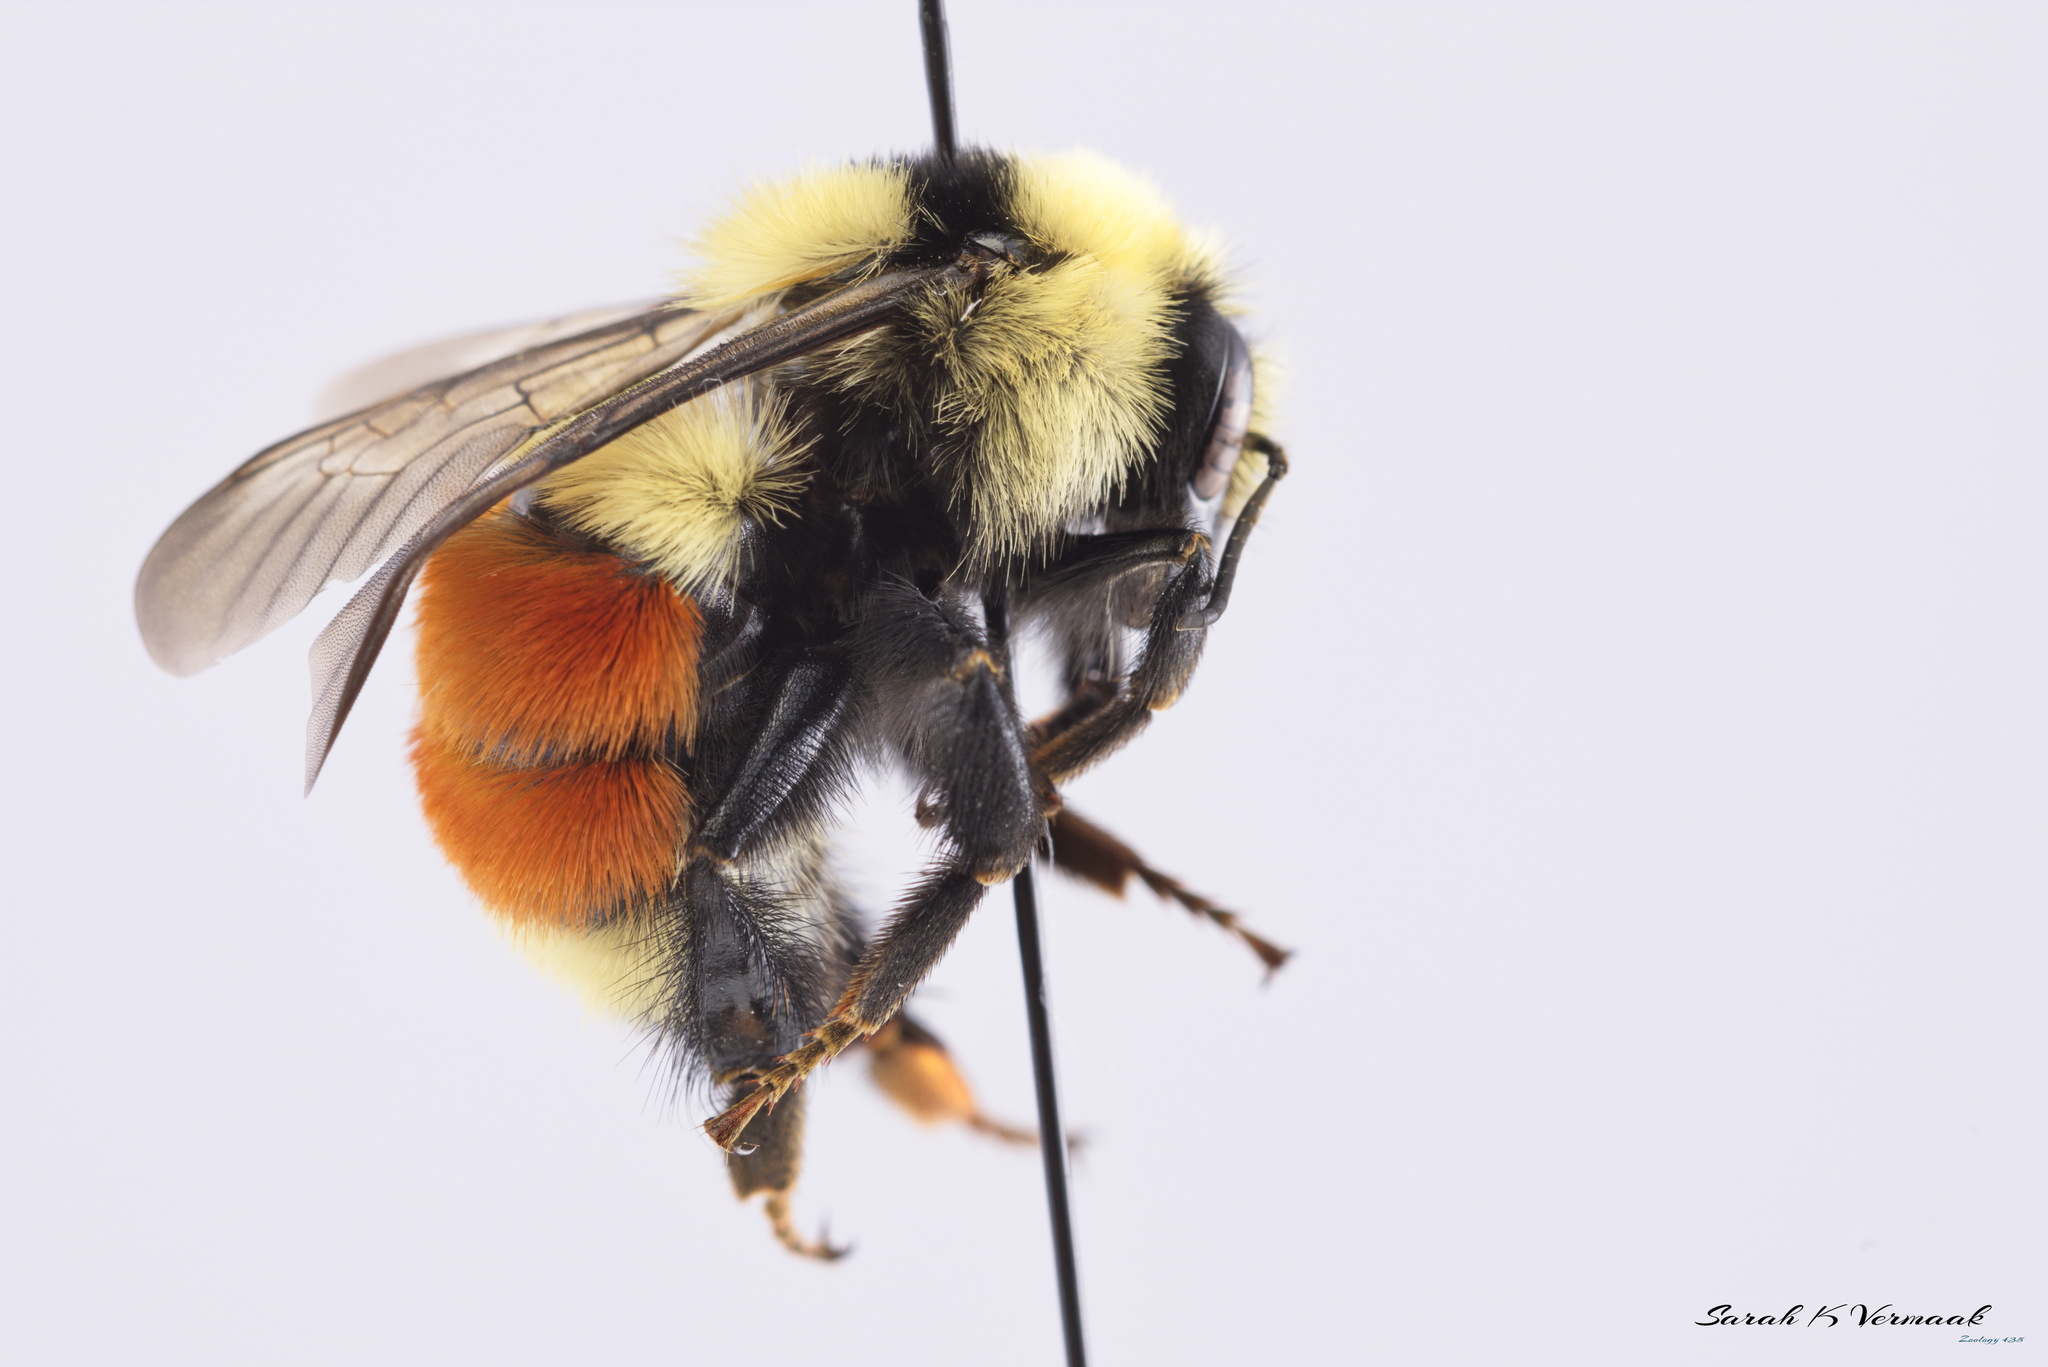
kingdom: Animalia
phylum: Arthropoda
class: Insecta
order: Hymenoptera
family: Apidae
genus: Bombus
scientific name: Bombus huntii
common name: Hunt bumble bee
